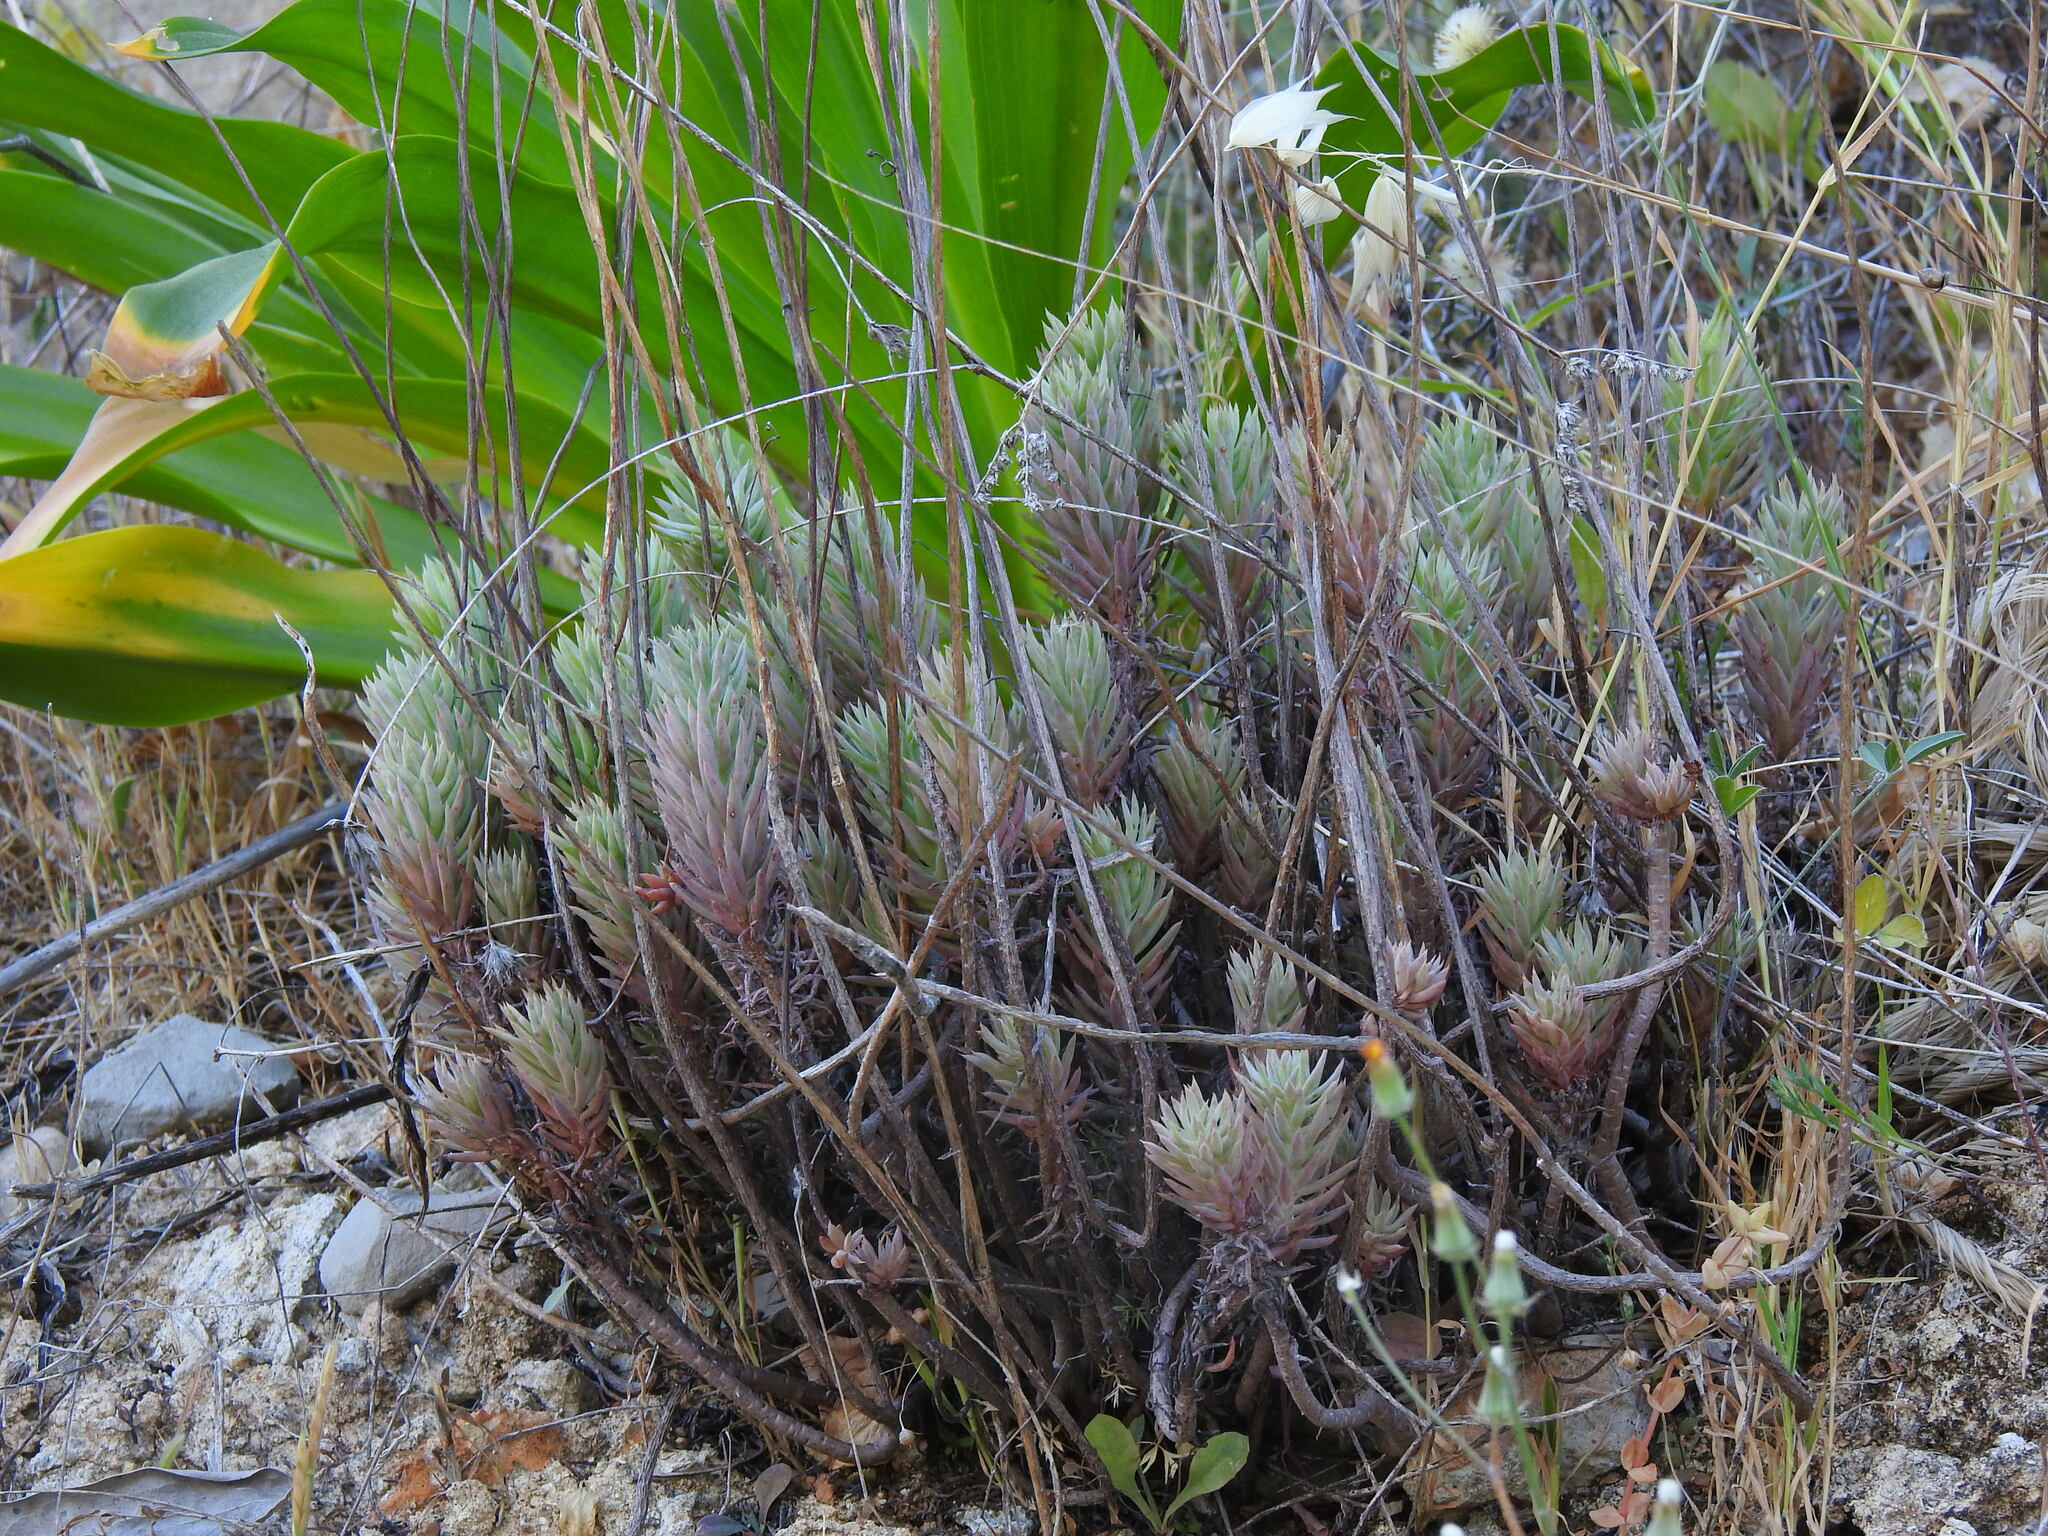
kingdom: Plantae
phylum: Tracheophyta
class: Magnoliopsida
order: Saxifragales
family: Crassulaceae
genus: Petrosedum
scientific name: Petrosedum sediforme
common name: Pale stonecrop
